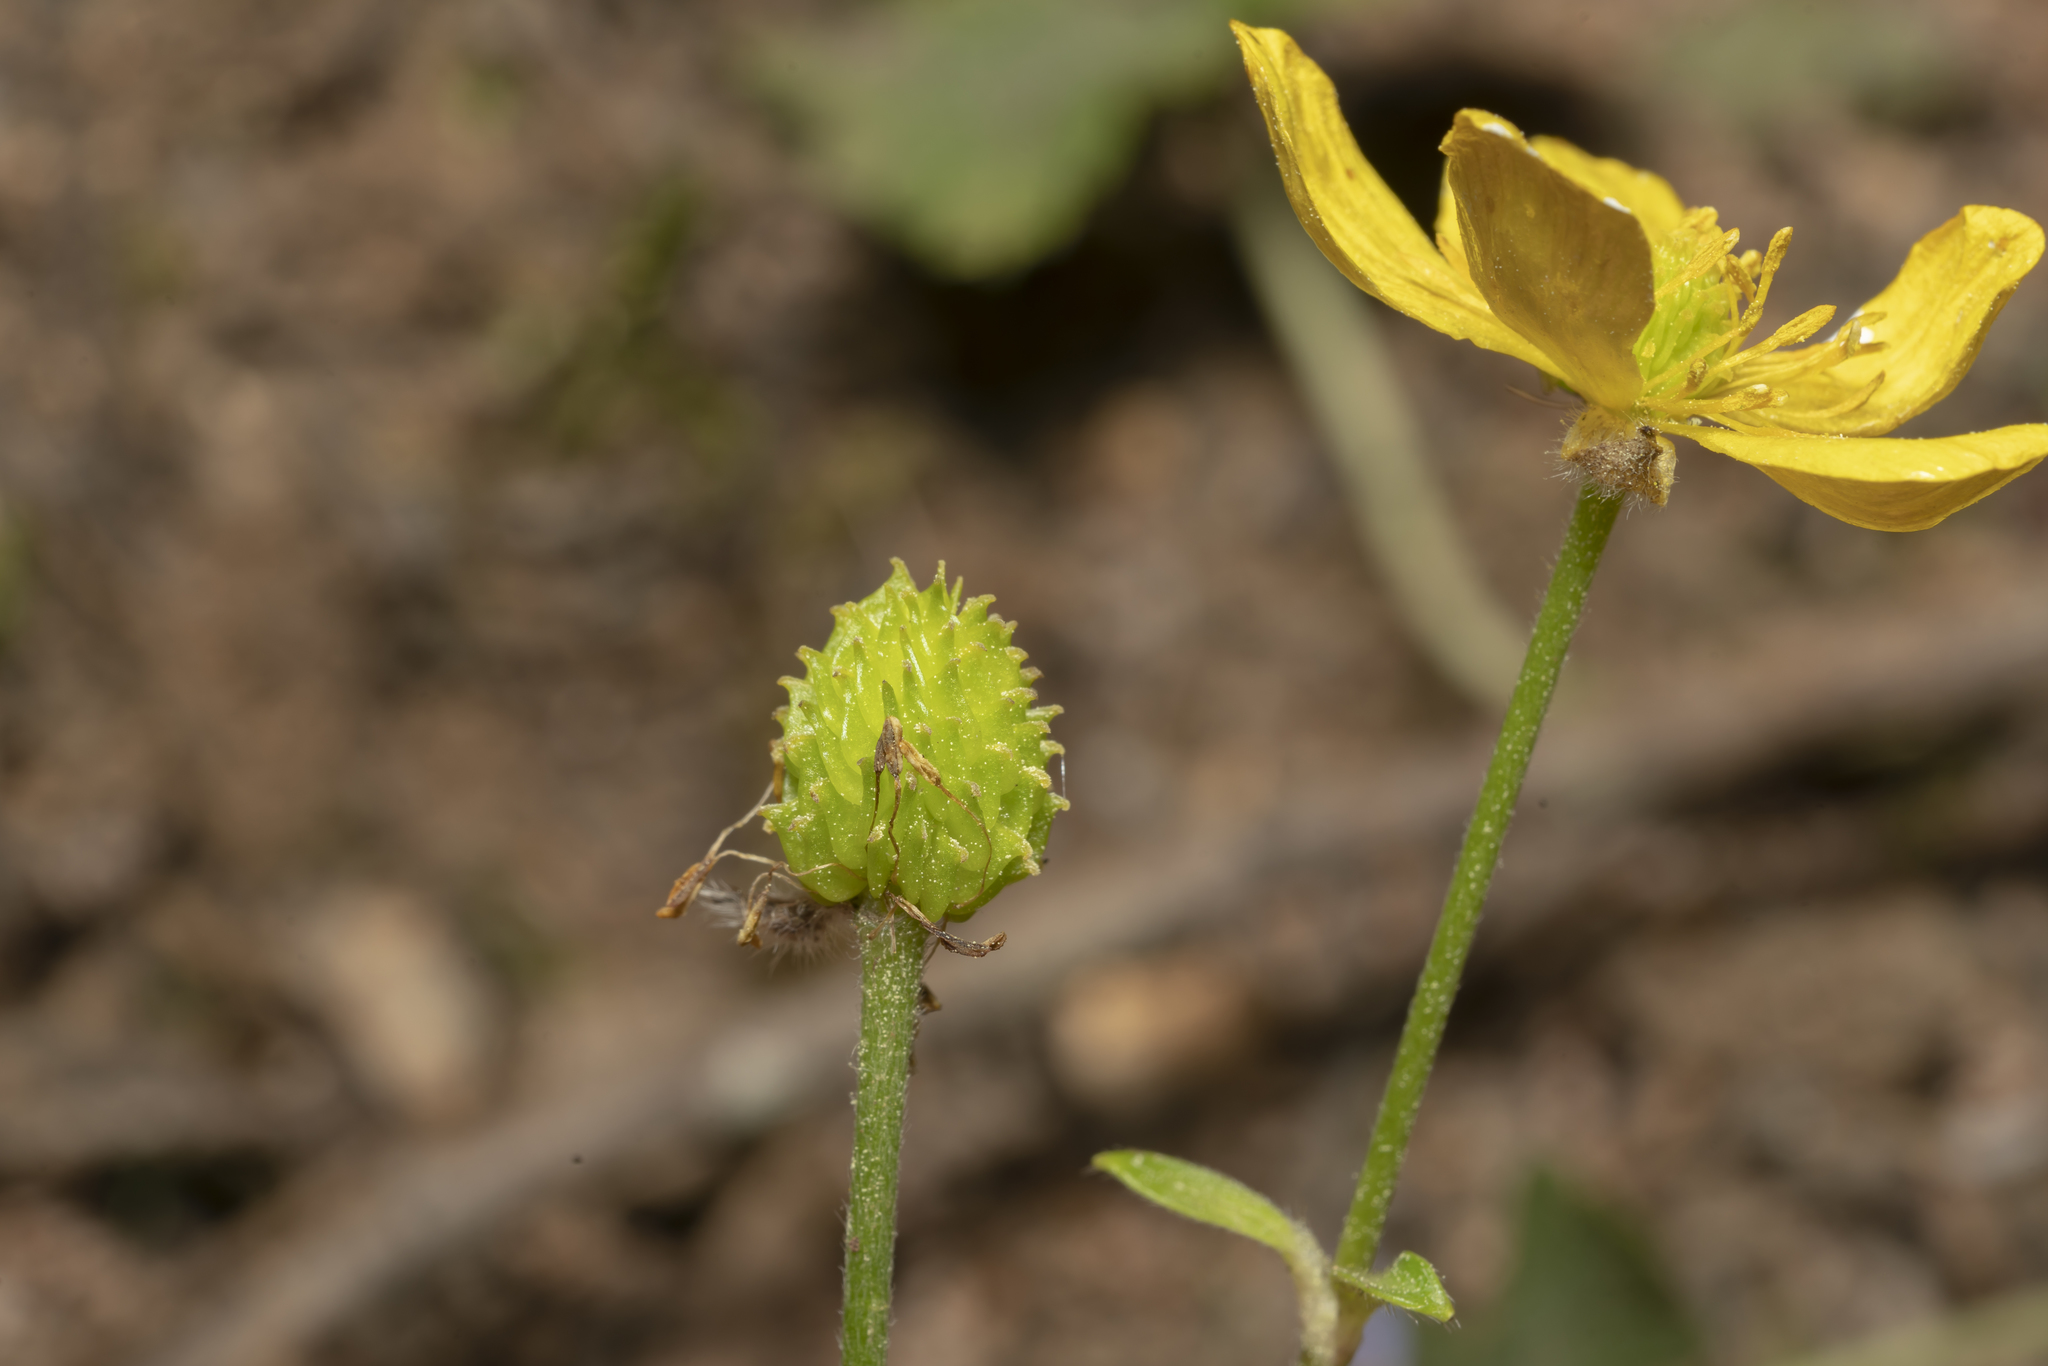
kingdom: Plantae
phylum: Tracheophyta
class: Magnoliopsida
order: Ranunculales
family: Ranunculaceae
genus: Ranunculus
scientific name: Ranunculus creticus
